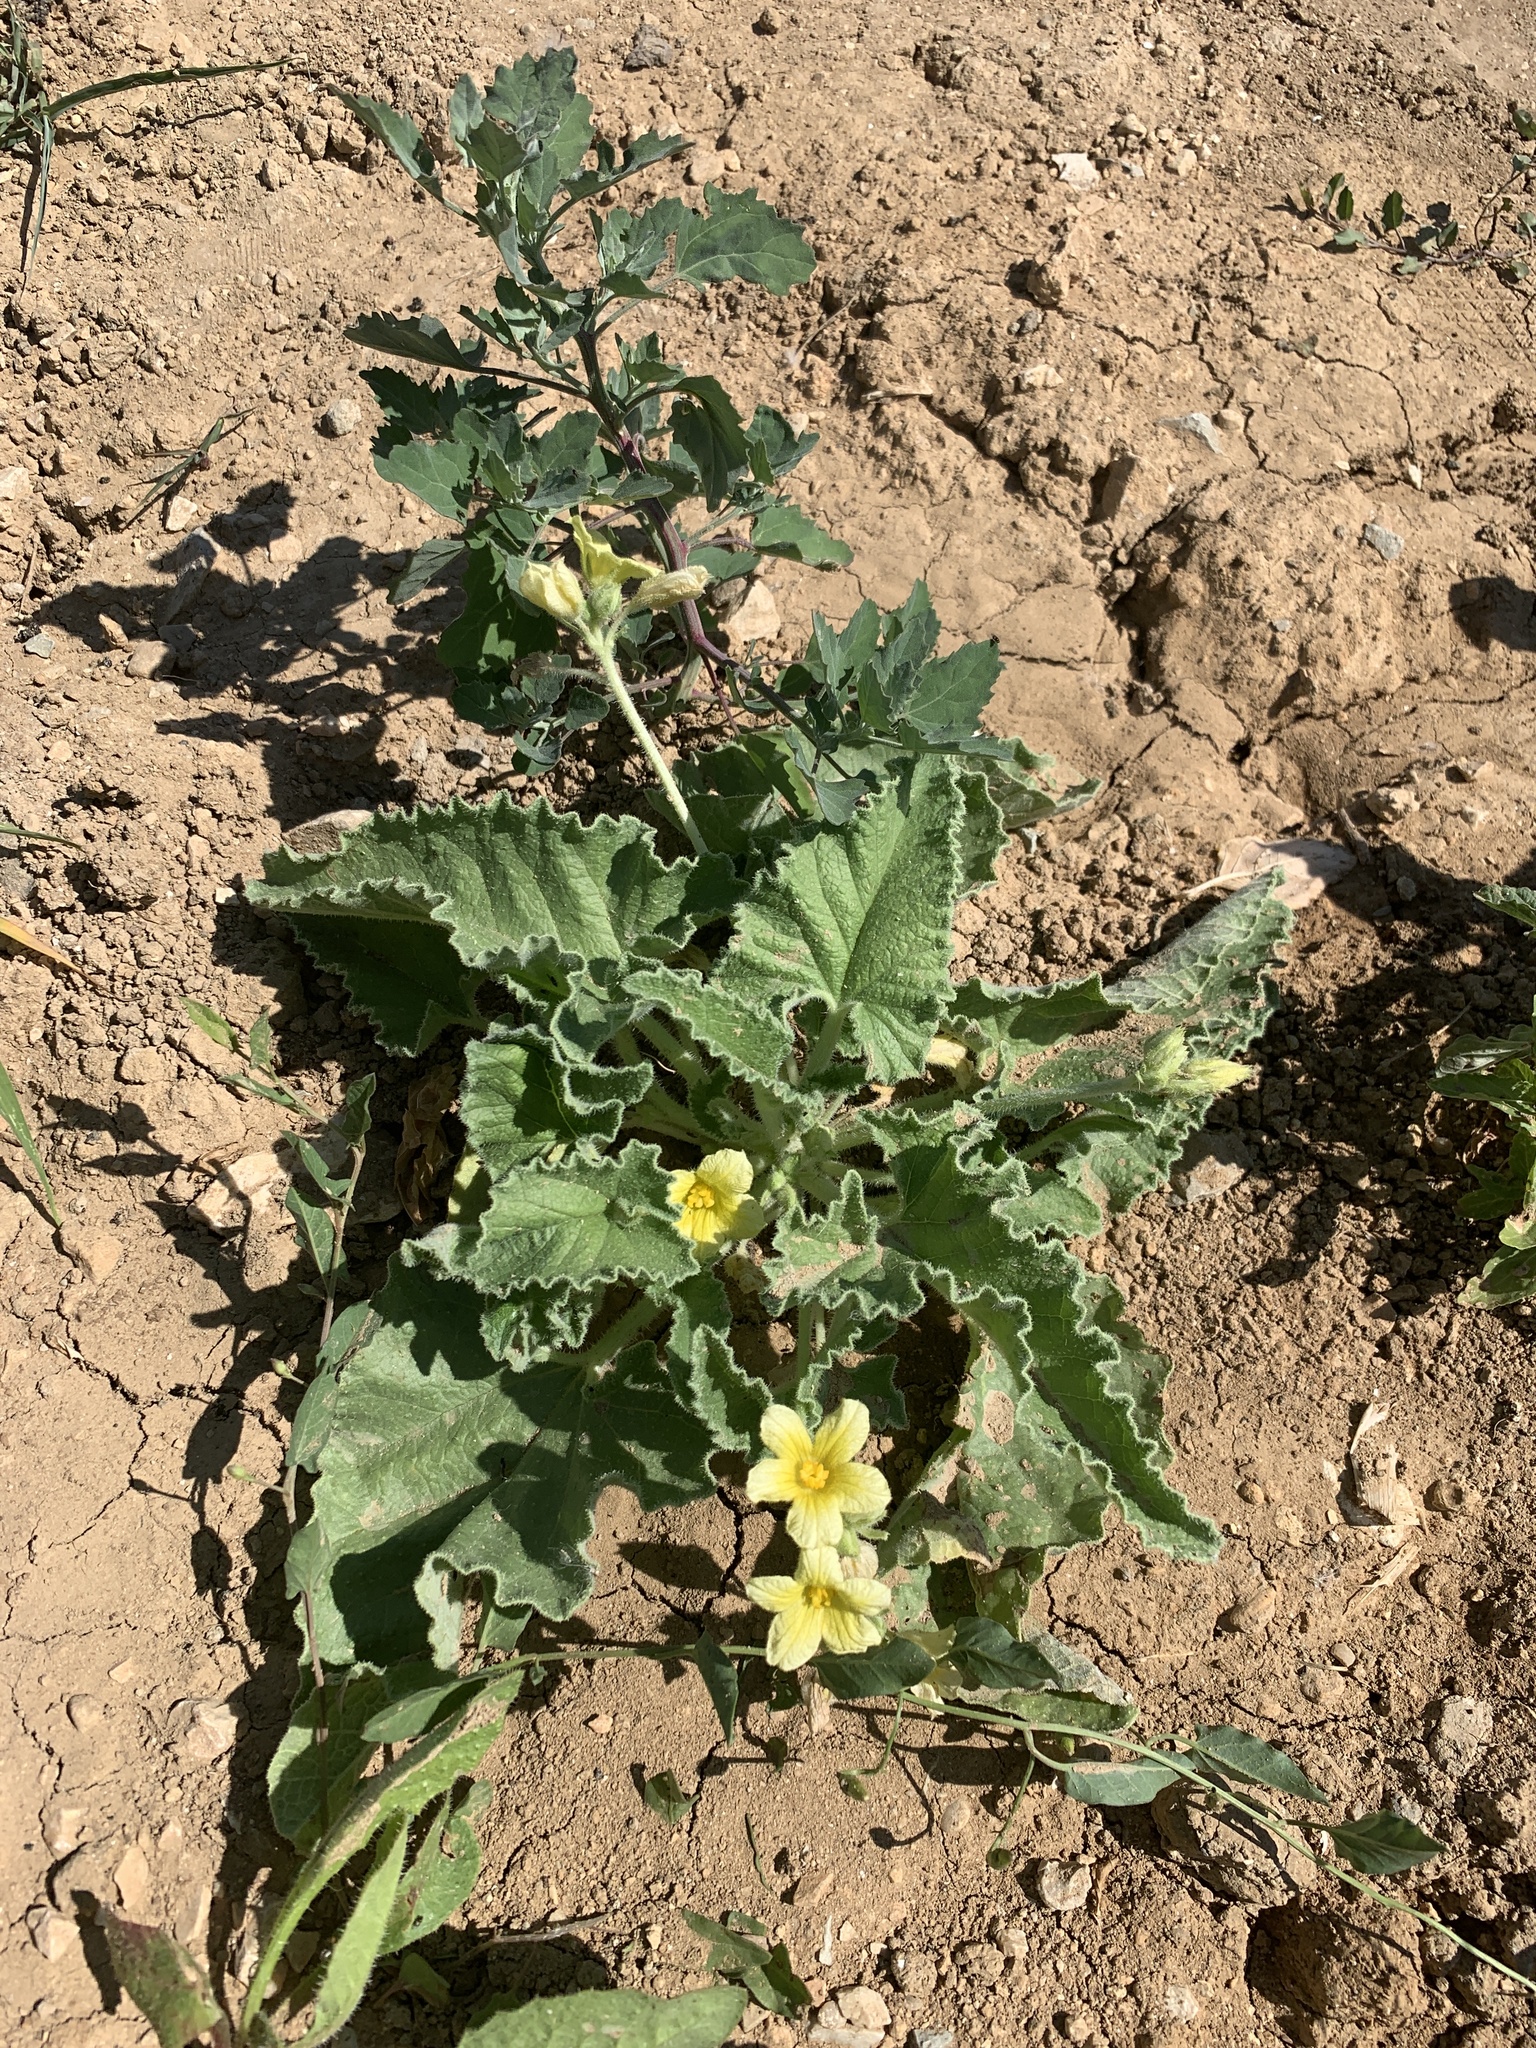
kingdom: Plantae
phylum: Tracheophyta
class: Magnoliopsida
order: Cucurbitales
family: Cucurbitaceae
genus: Ecballium
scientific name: Ecballium elaterium
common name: Squirting cucumber
